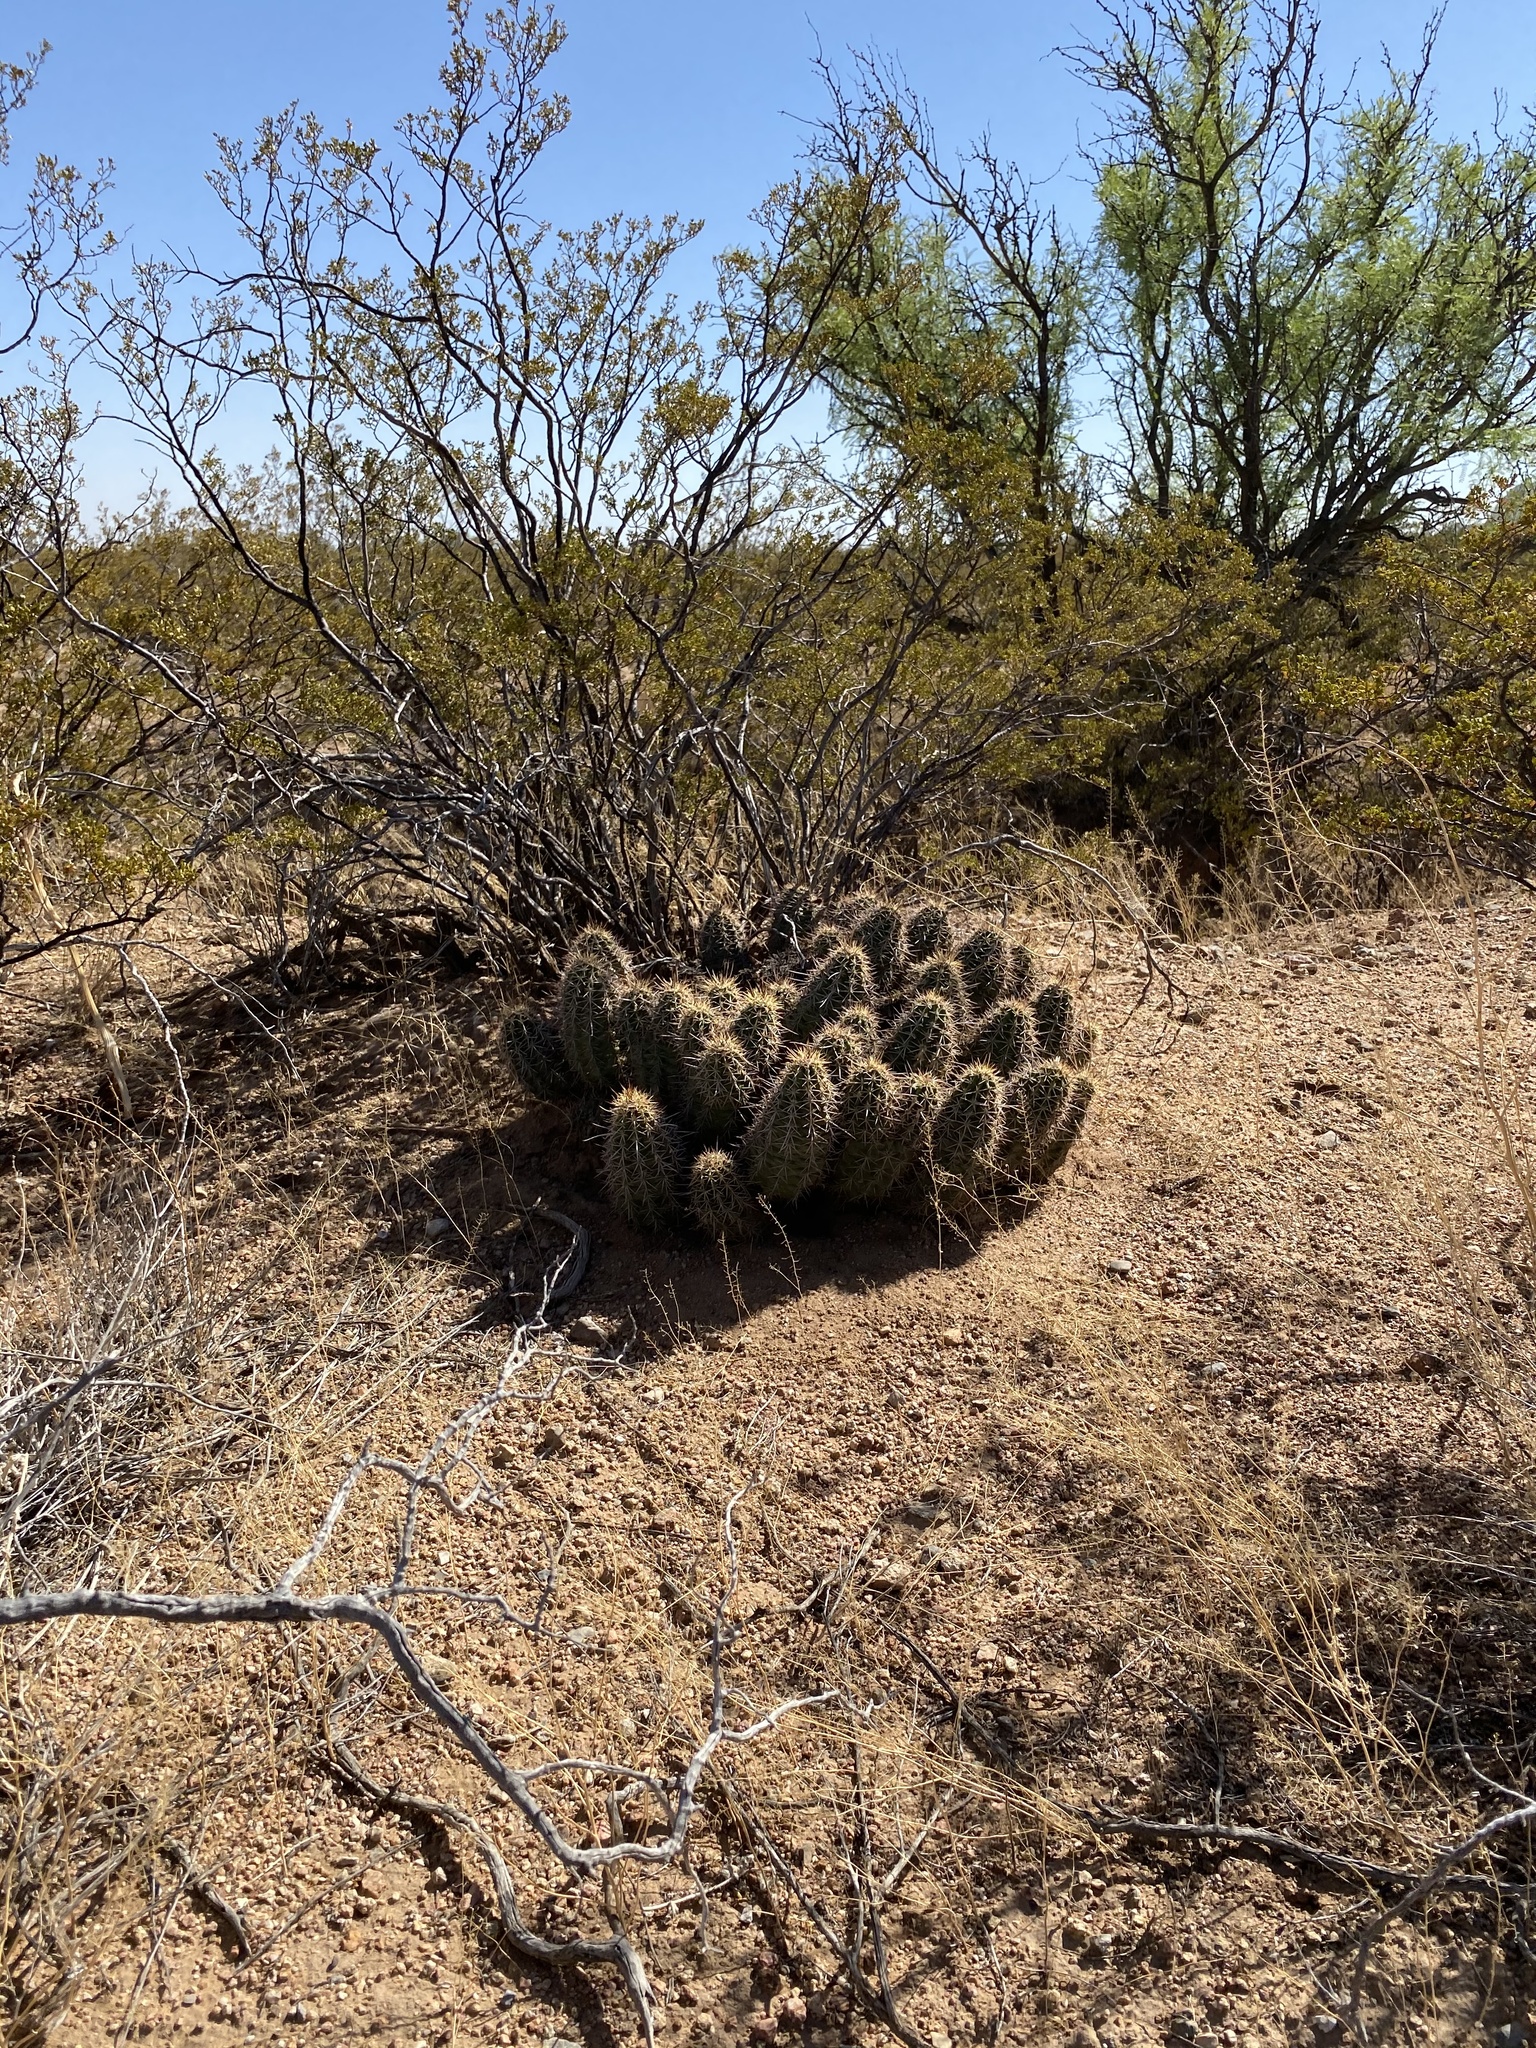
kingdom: Plantae
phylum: Tracheophyta
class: Magnoliopsida
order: Caryophyllales
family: Cactaceae
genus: Echinocereus
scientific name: Echinocereus coccineus
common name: Scarlet hedgehog cactus
